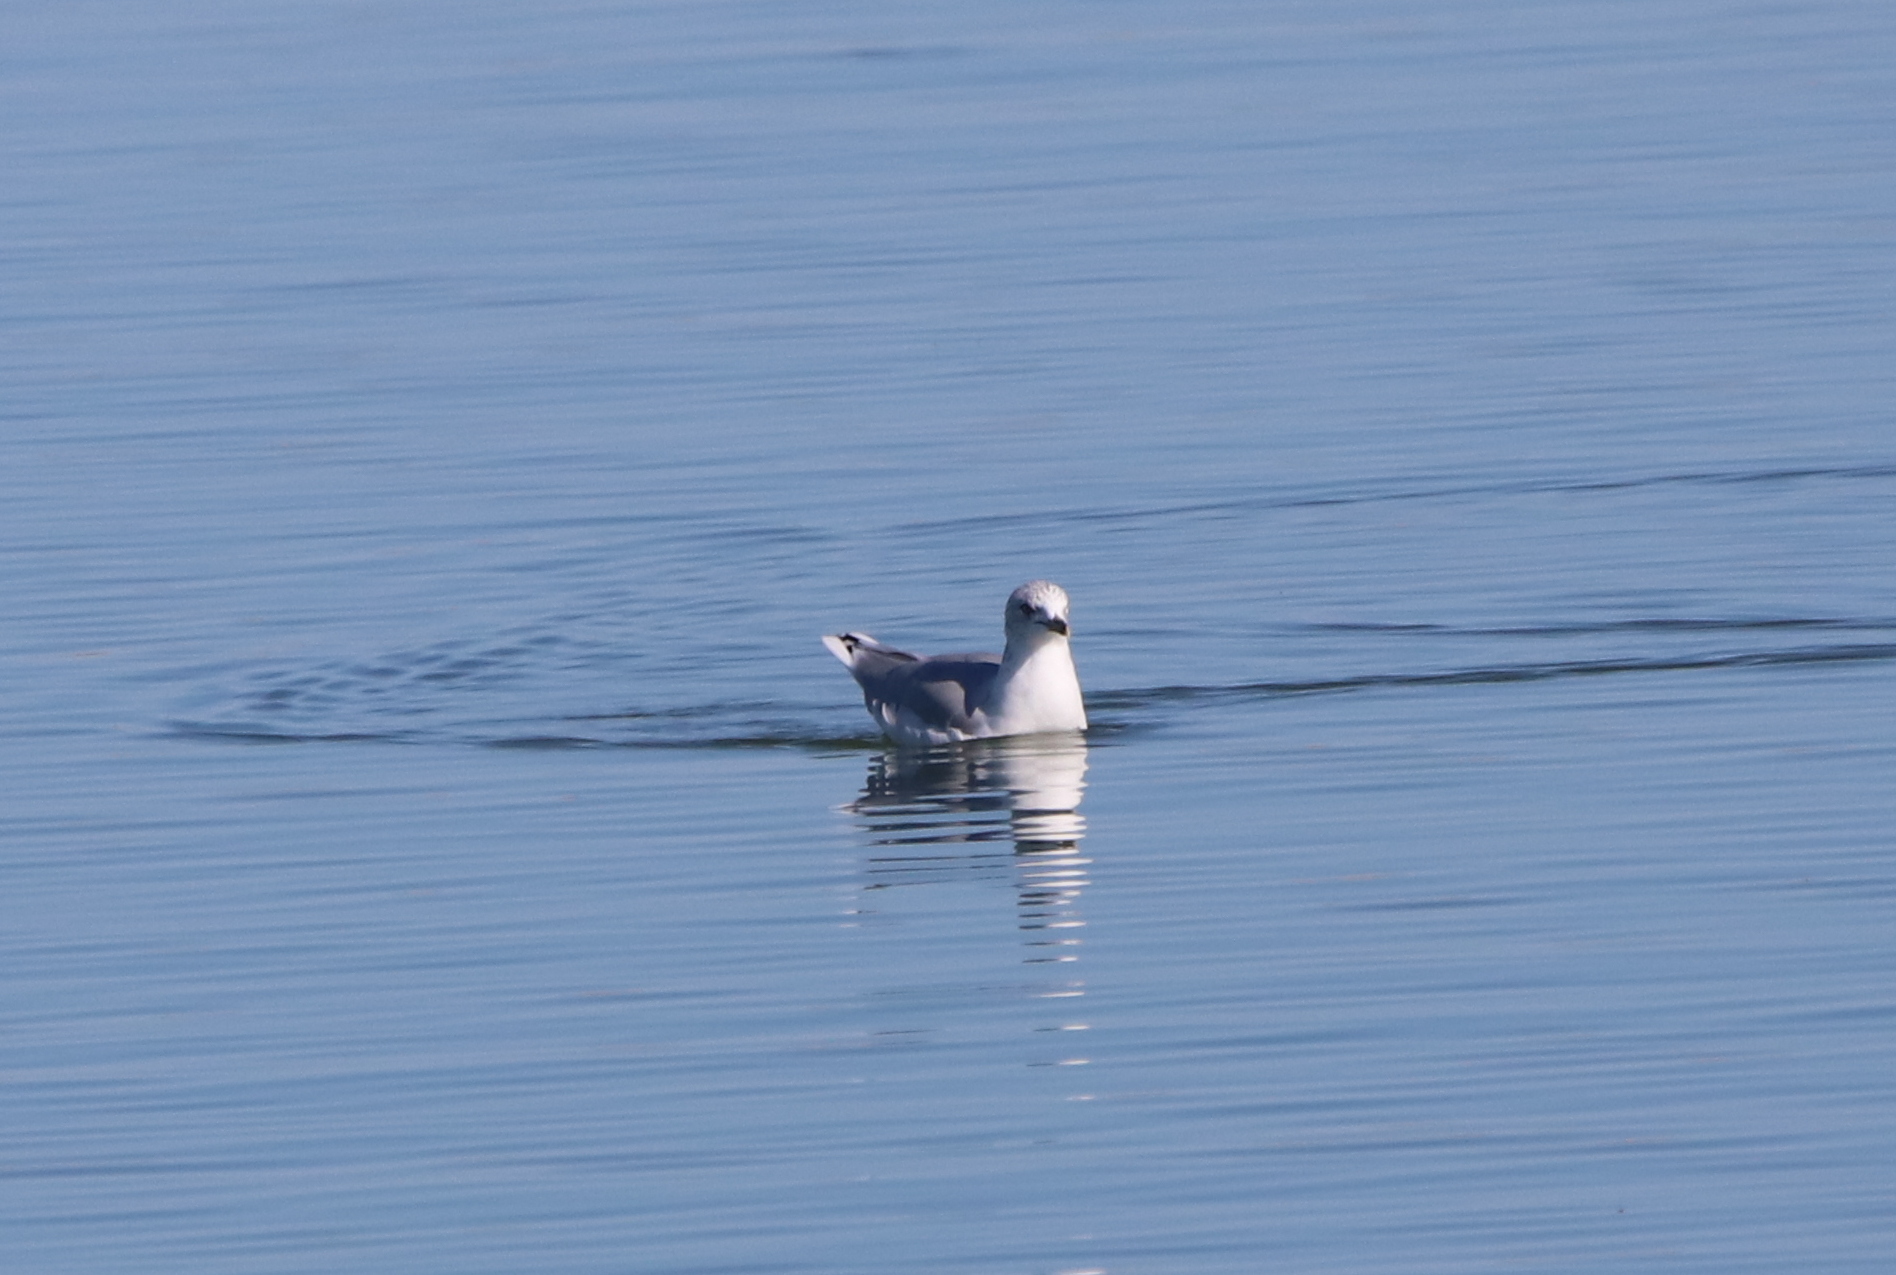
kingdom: Animalia
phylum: Chordata
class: Aves
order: Charadriiformes
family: Laridae
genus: Larus
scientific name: Larus delawarensis
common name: Ring-billed gull
